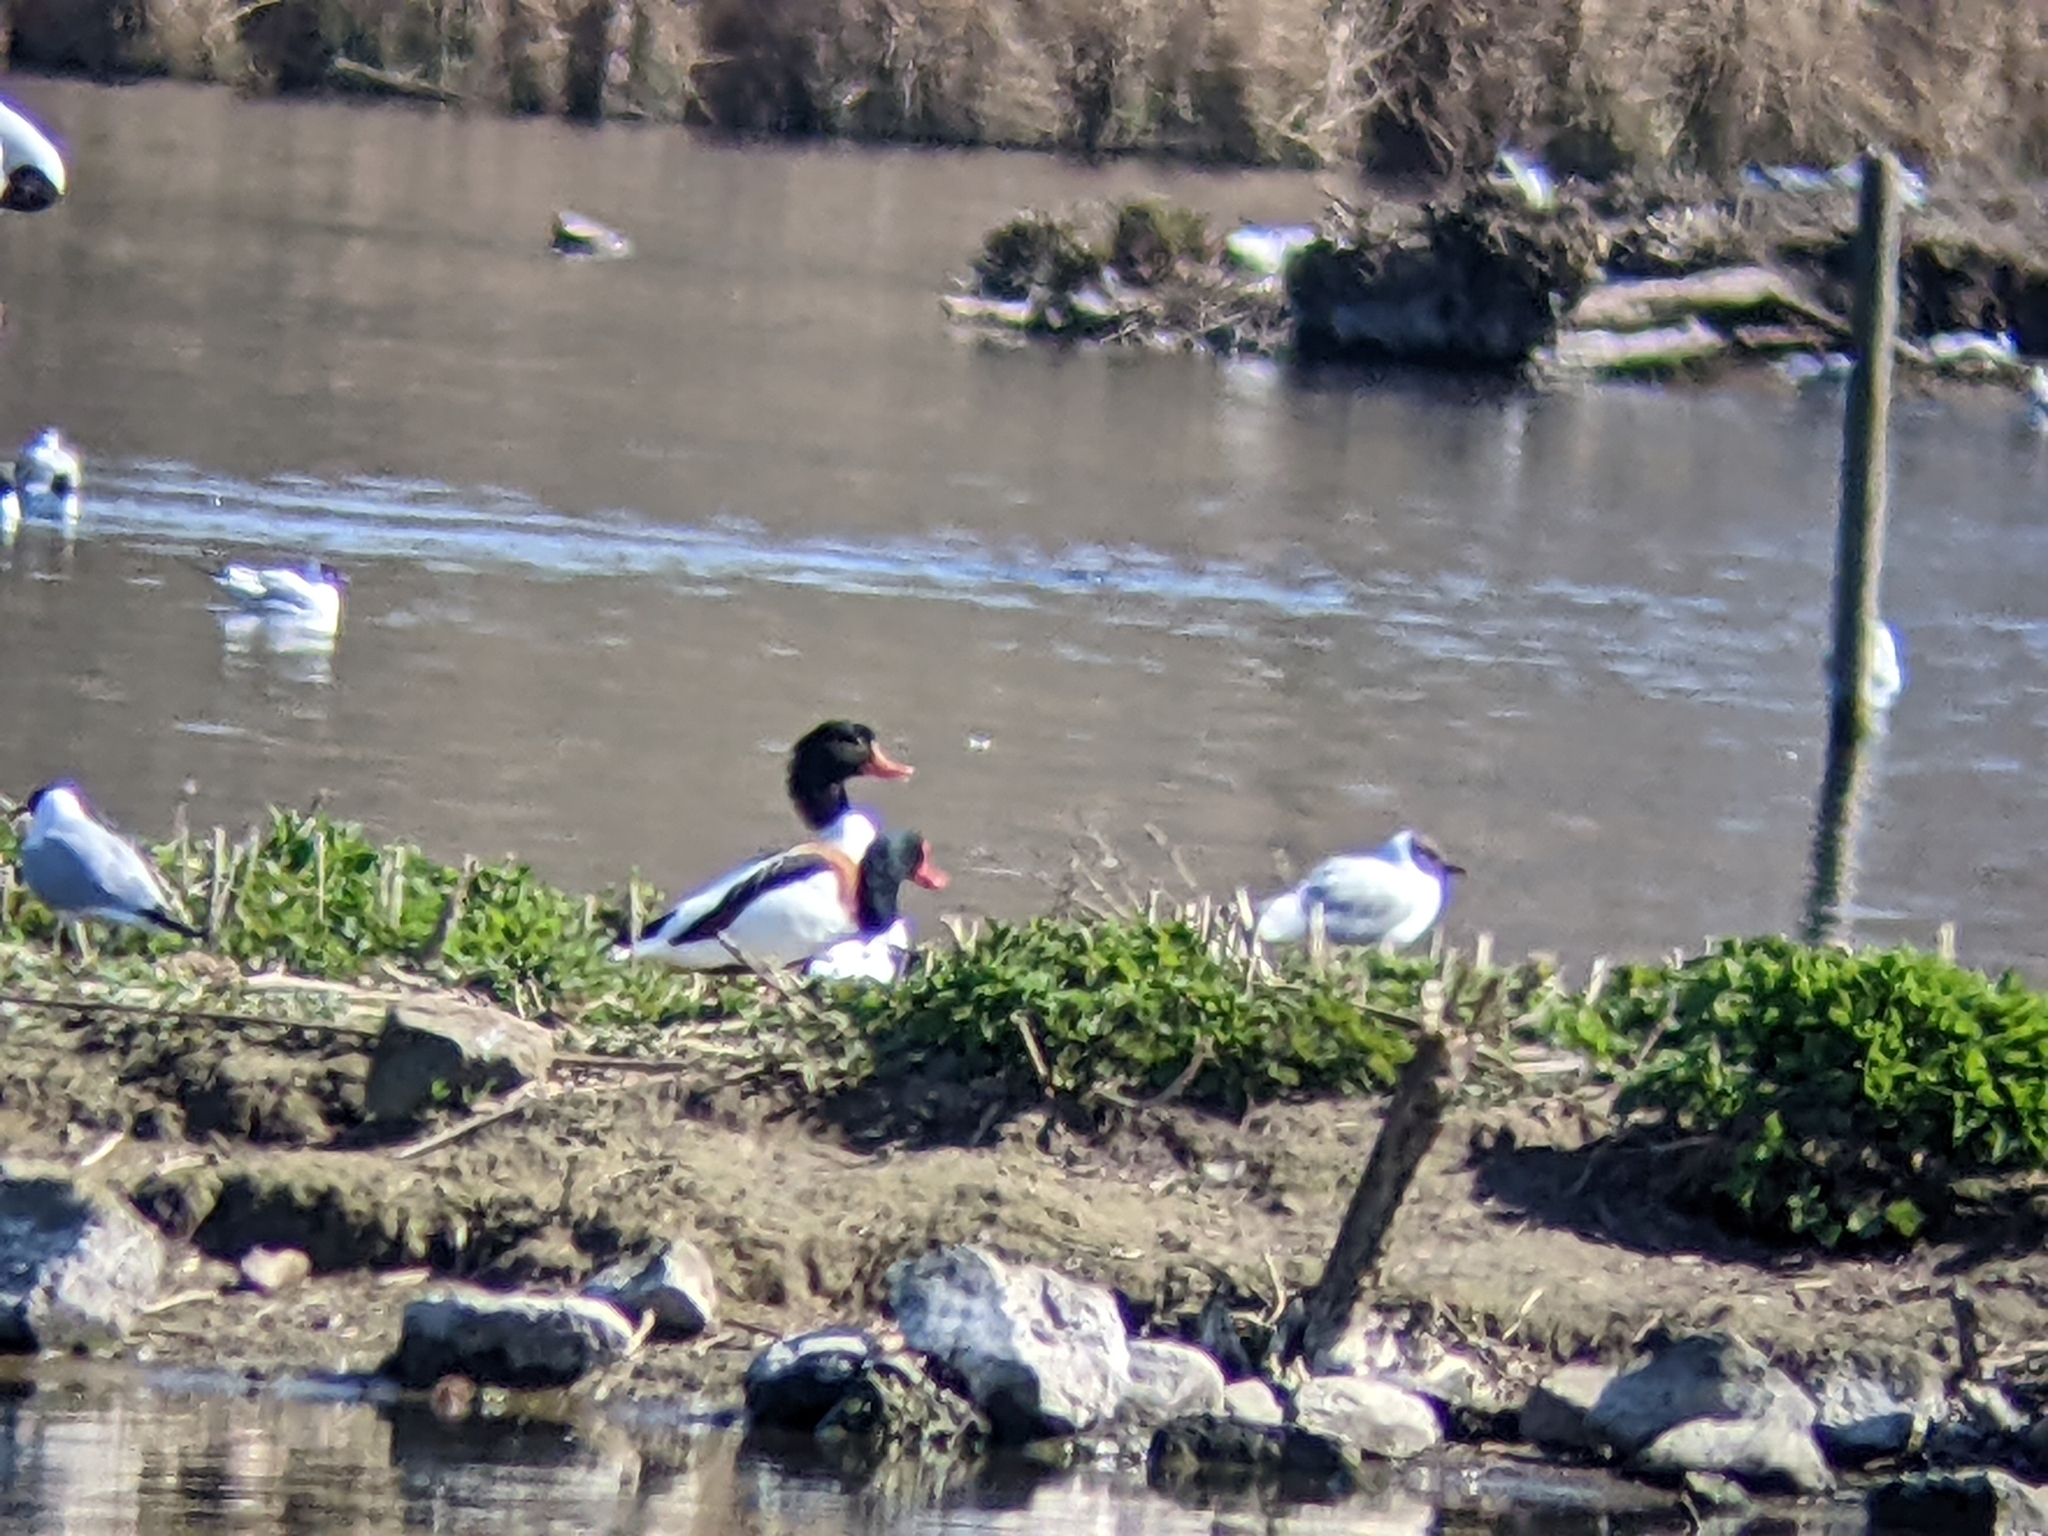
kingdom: Animalia
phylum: Chordata
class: Aves
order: Anseriformes
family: Anatidae
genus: Tadorna
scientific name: Tadorna tadorna
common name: Common shelduck
